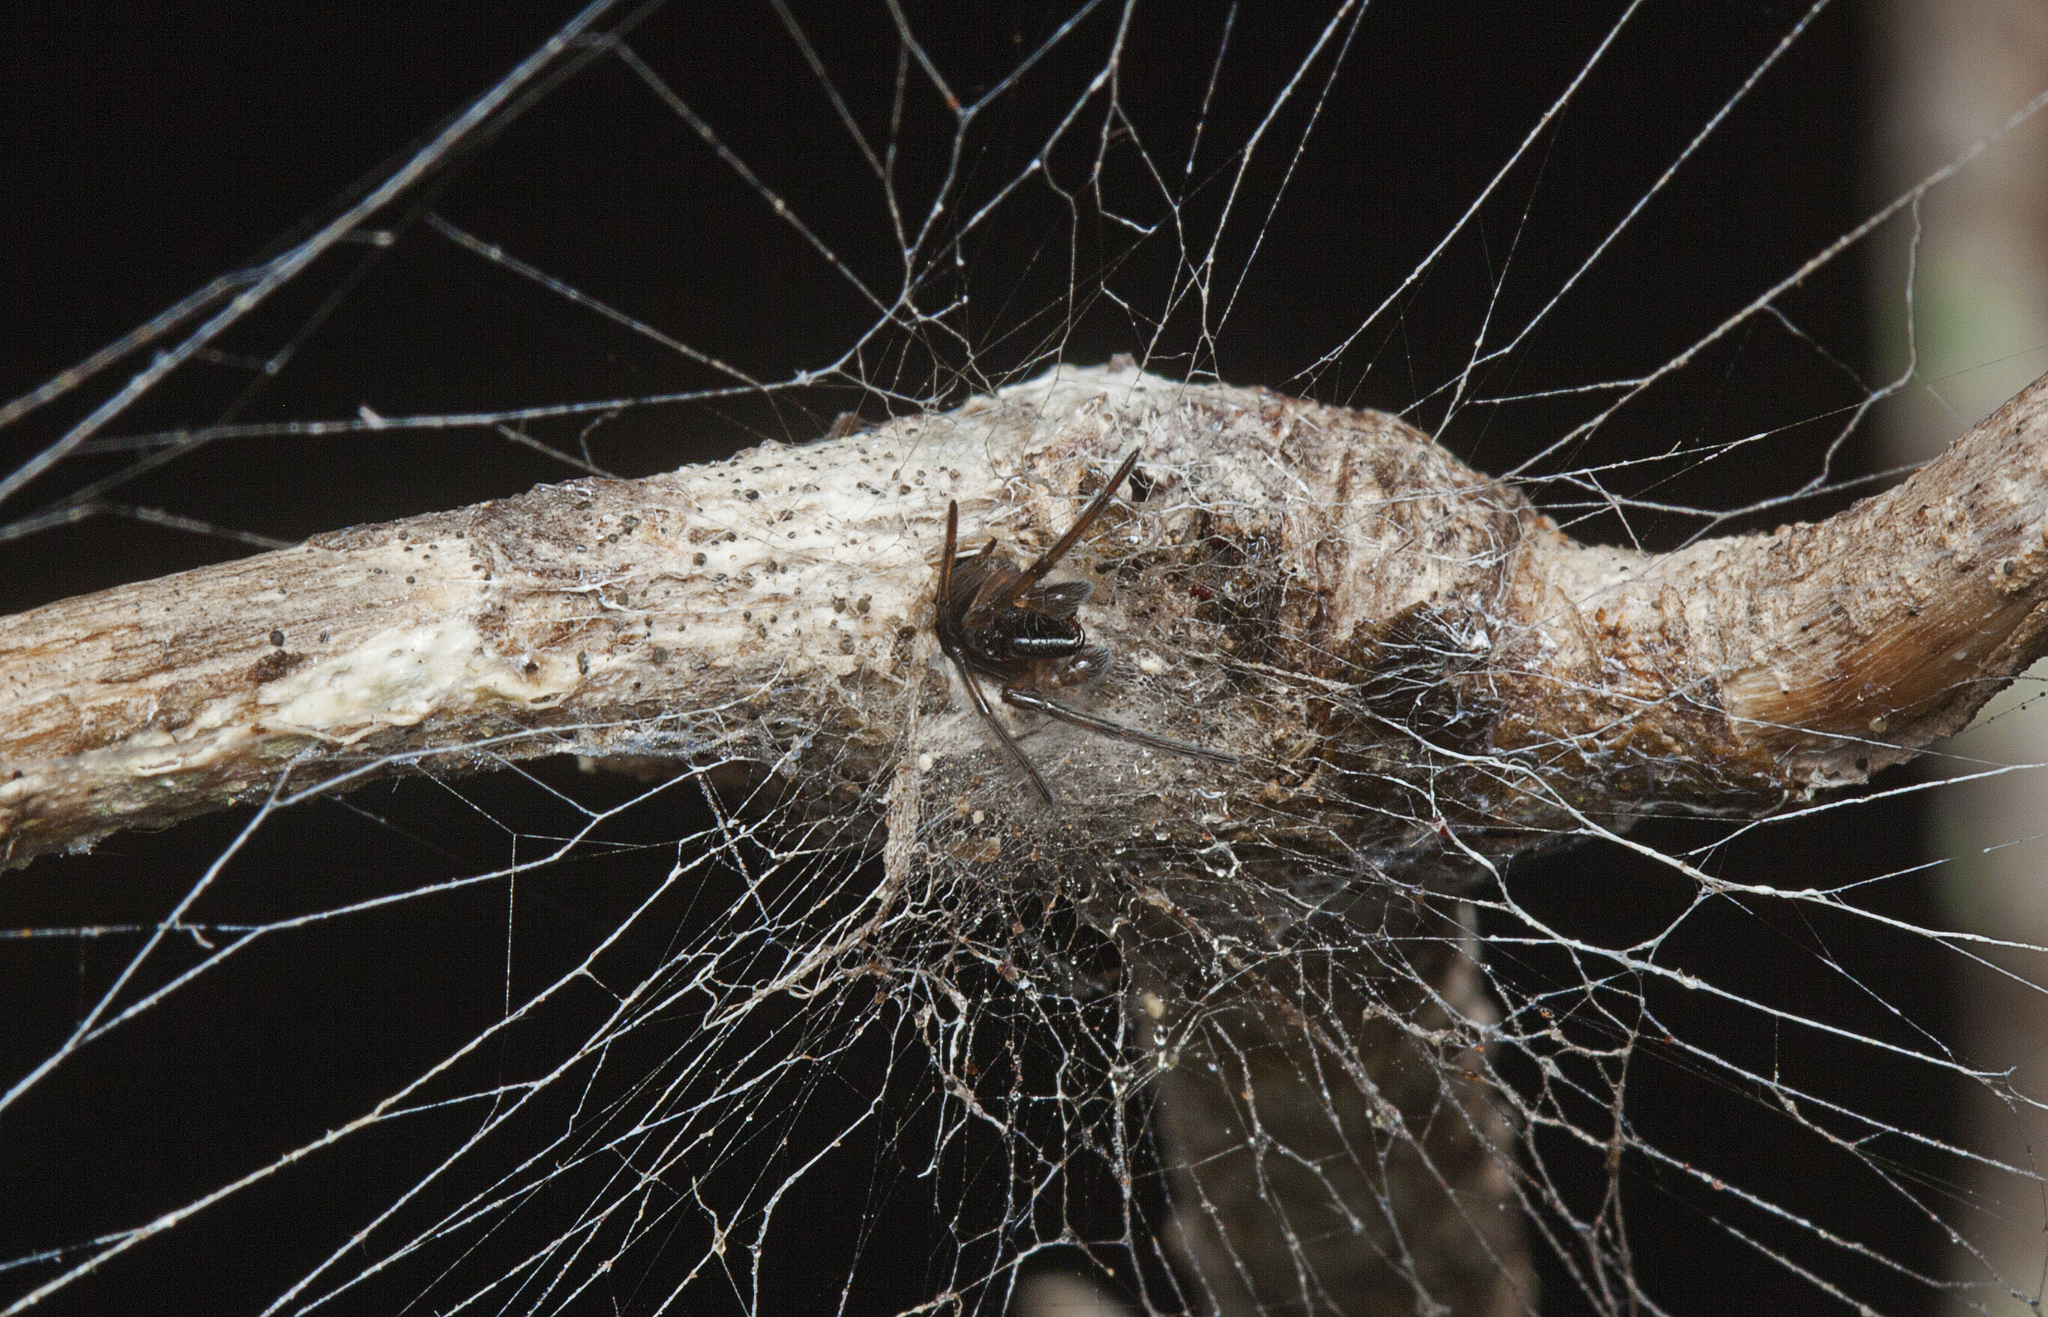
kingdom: Animalia
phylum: Arthropoda
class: Arachnida
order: Araneae
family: Desidae
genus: Paramatachia
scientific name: Paramatachia decorata
